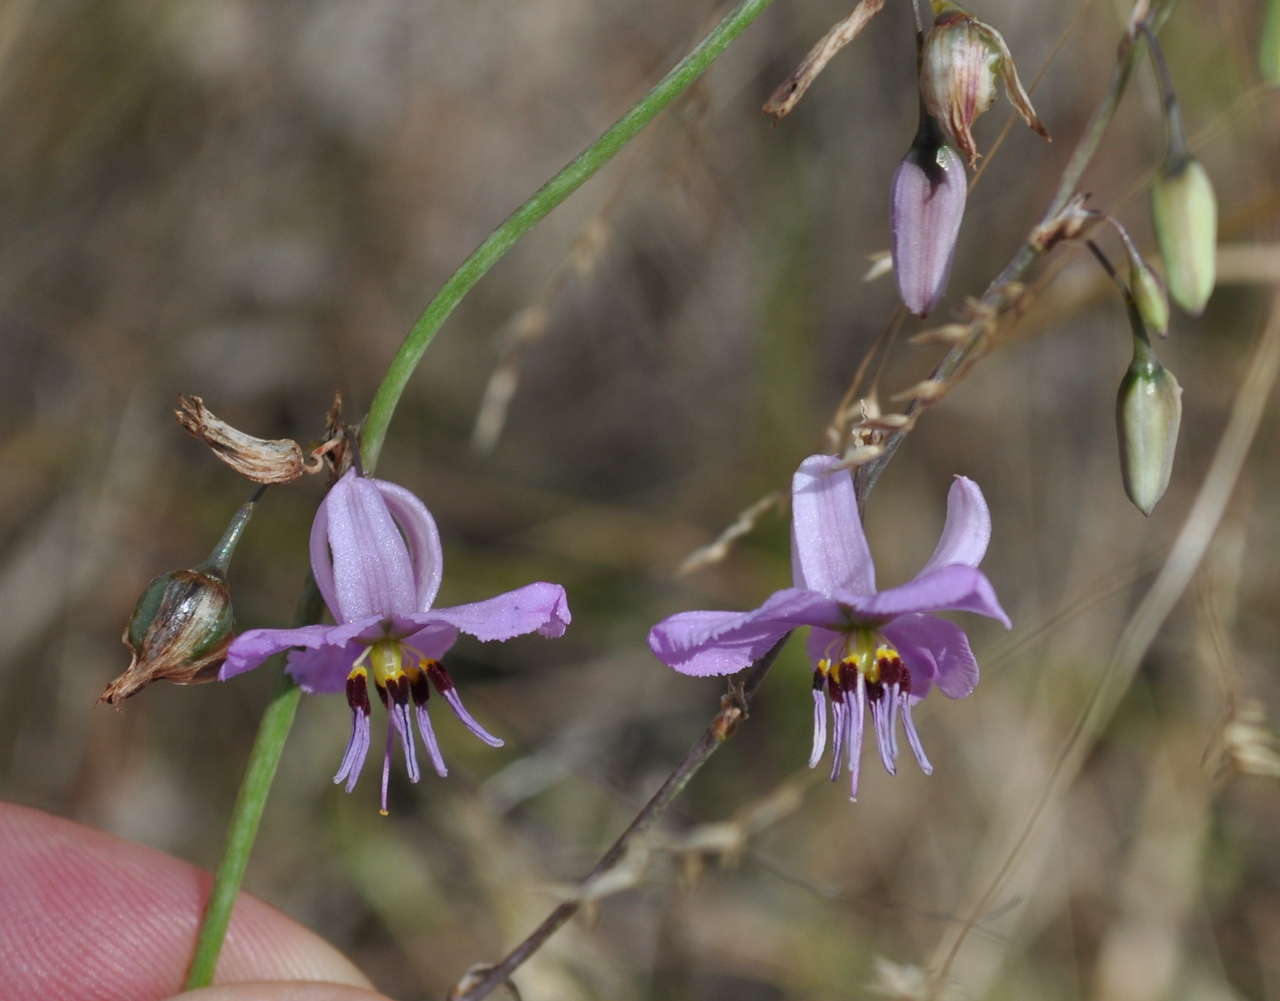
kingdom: Plantae
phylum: Tracheophyta
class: Liliopsida
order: Asparagales
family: Asparagaceae
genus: Dichopogon
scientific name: Dichopogon fimbriatus
